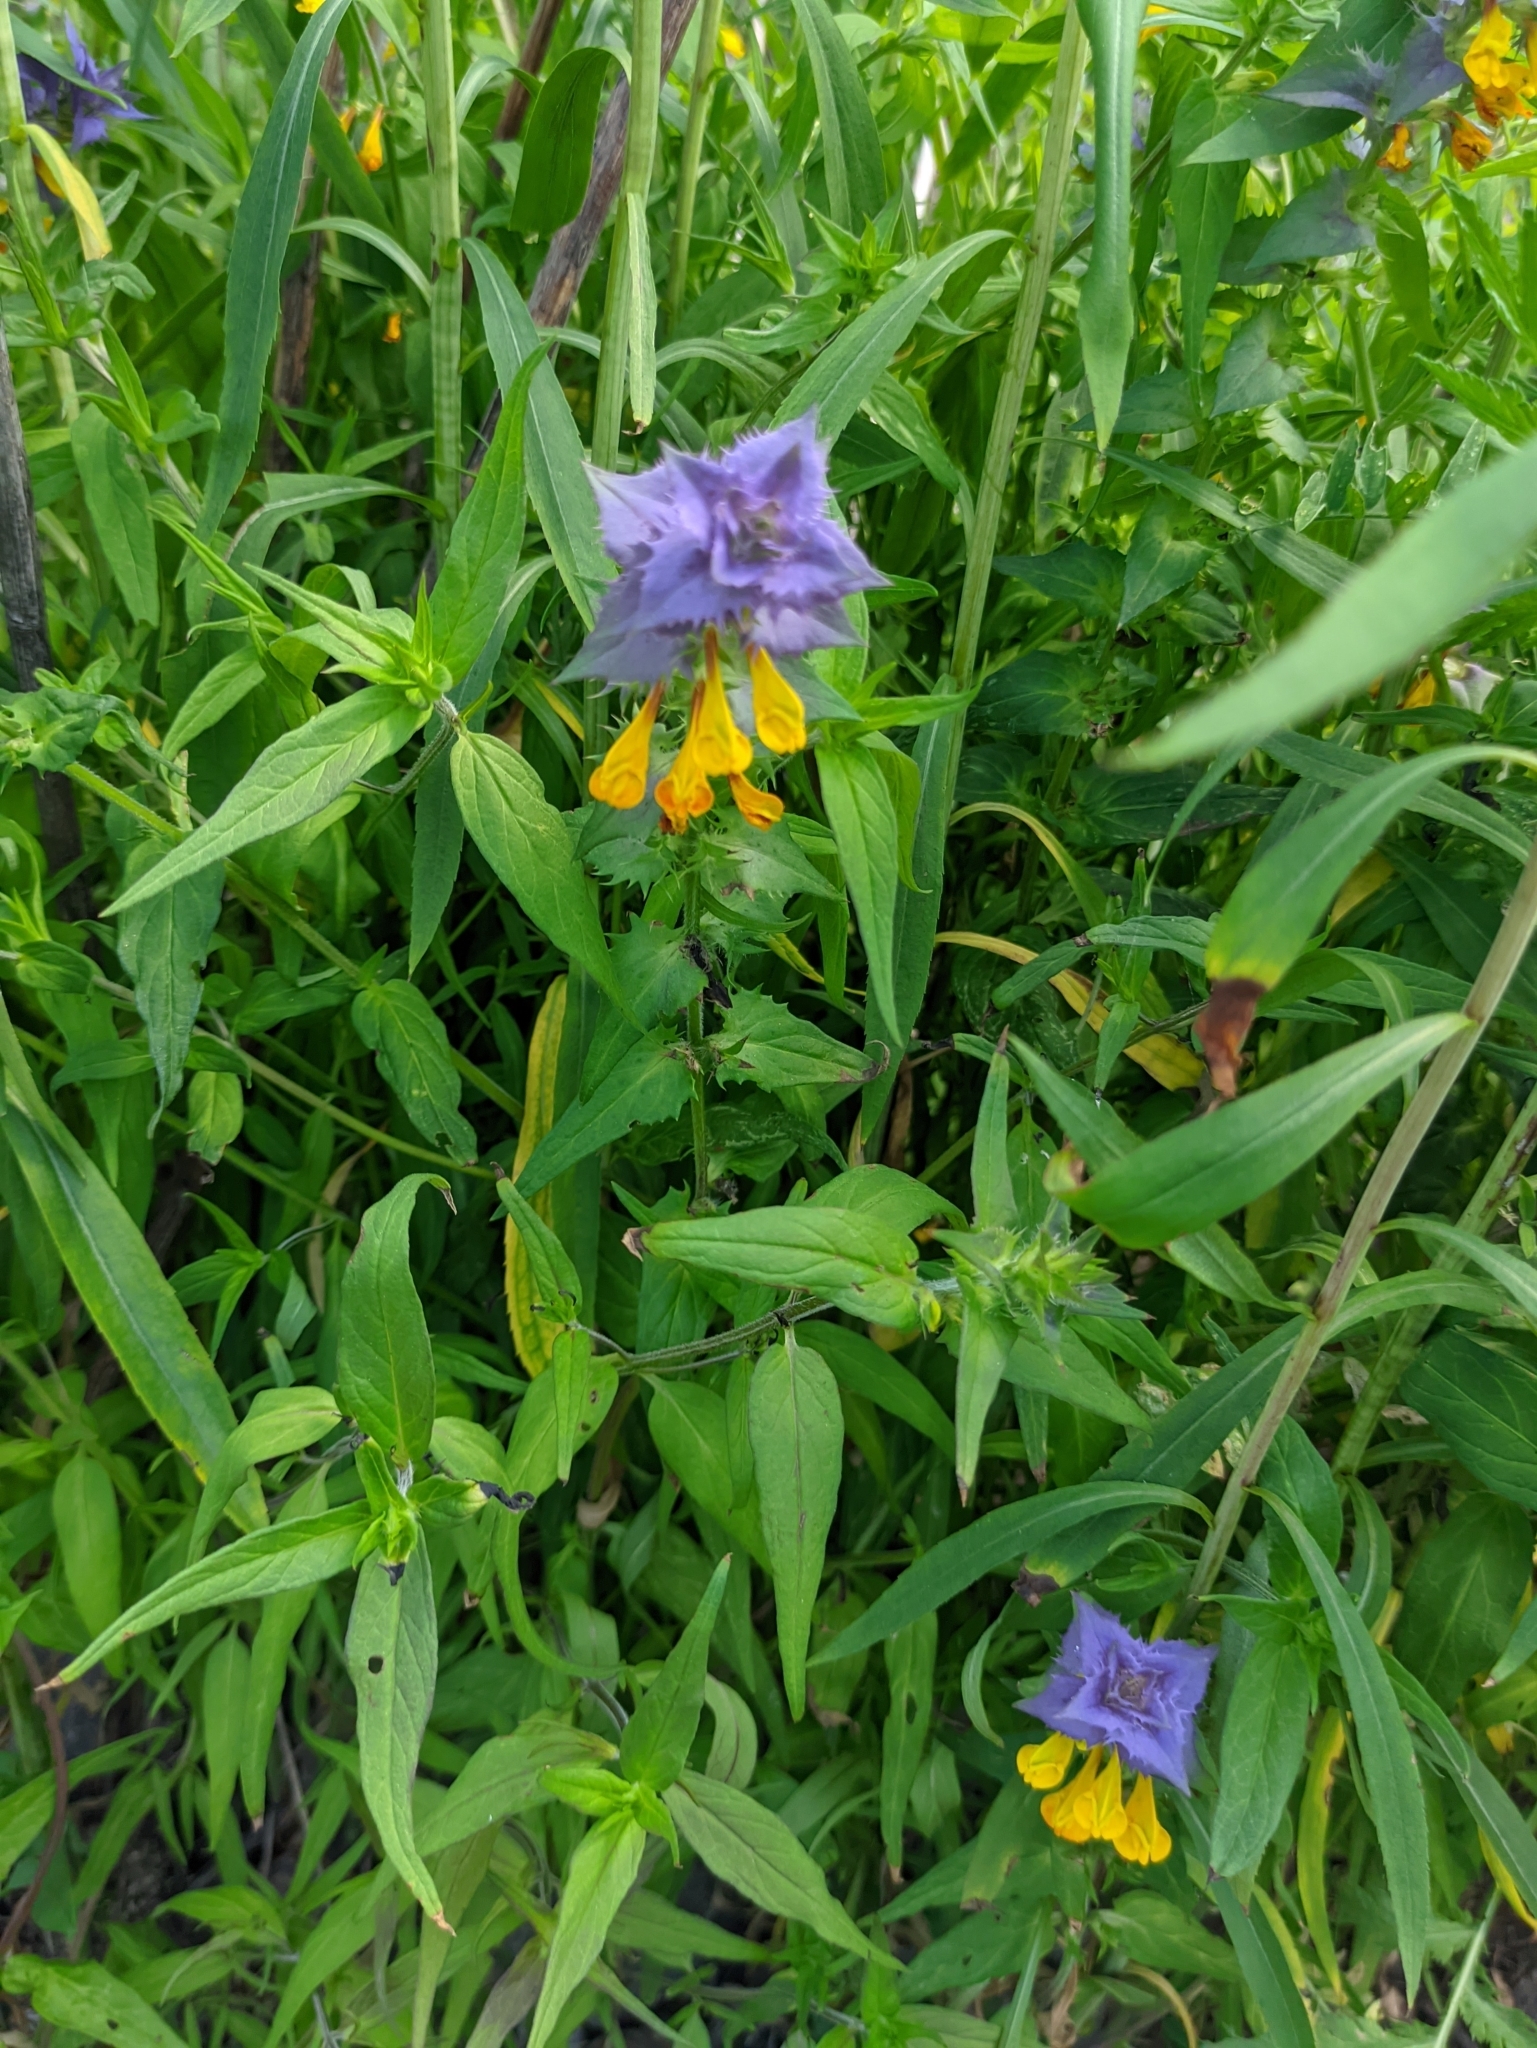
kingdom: Plantae
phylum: Tracheophyta
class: Magnoliopsida
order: Lamiales
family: Orobanchaceae
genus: Melampyrum
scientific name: Melampyrum nemorosum
